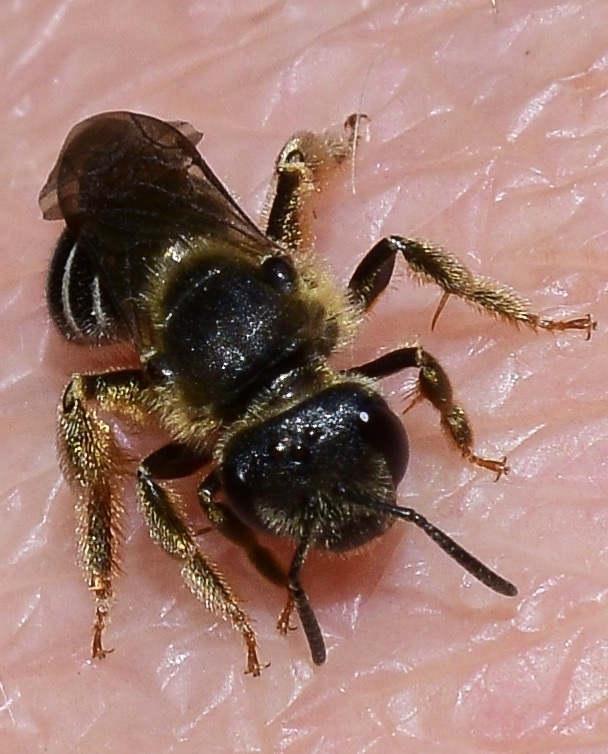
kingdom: Animalia
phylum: Arthropoda
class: Insecta
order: Hymenoptera
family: Halictidae
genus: Halictus
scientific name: Halictus rubicundus
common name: Orange-legged furrow bee
